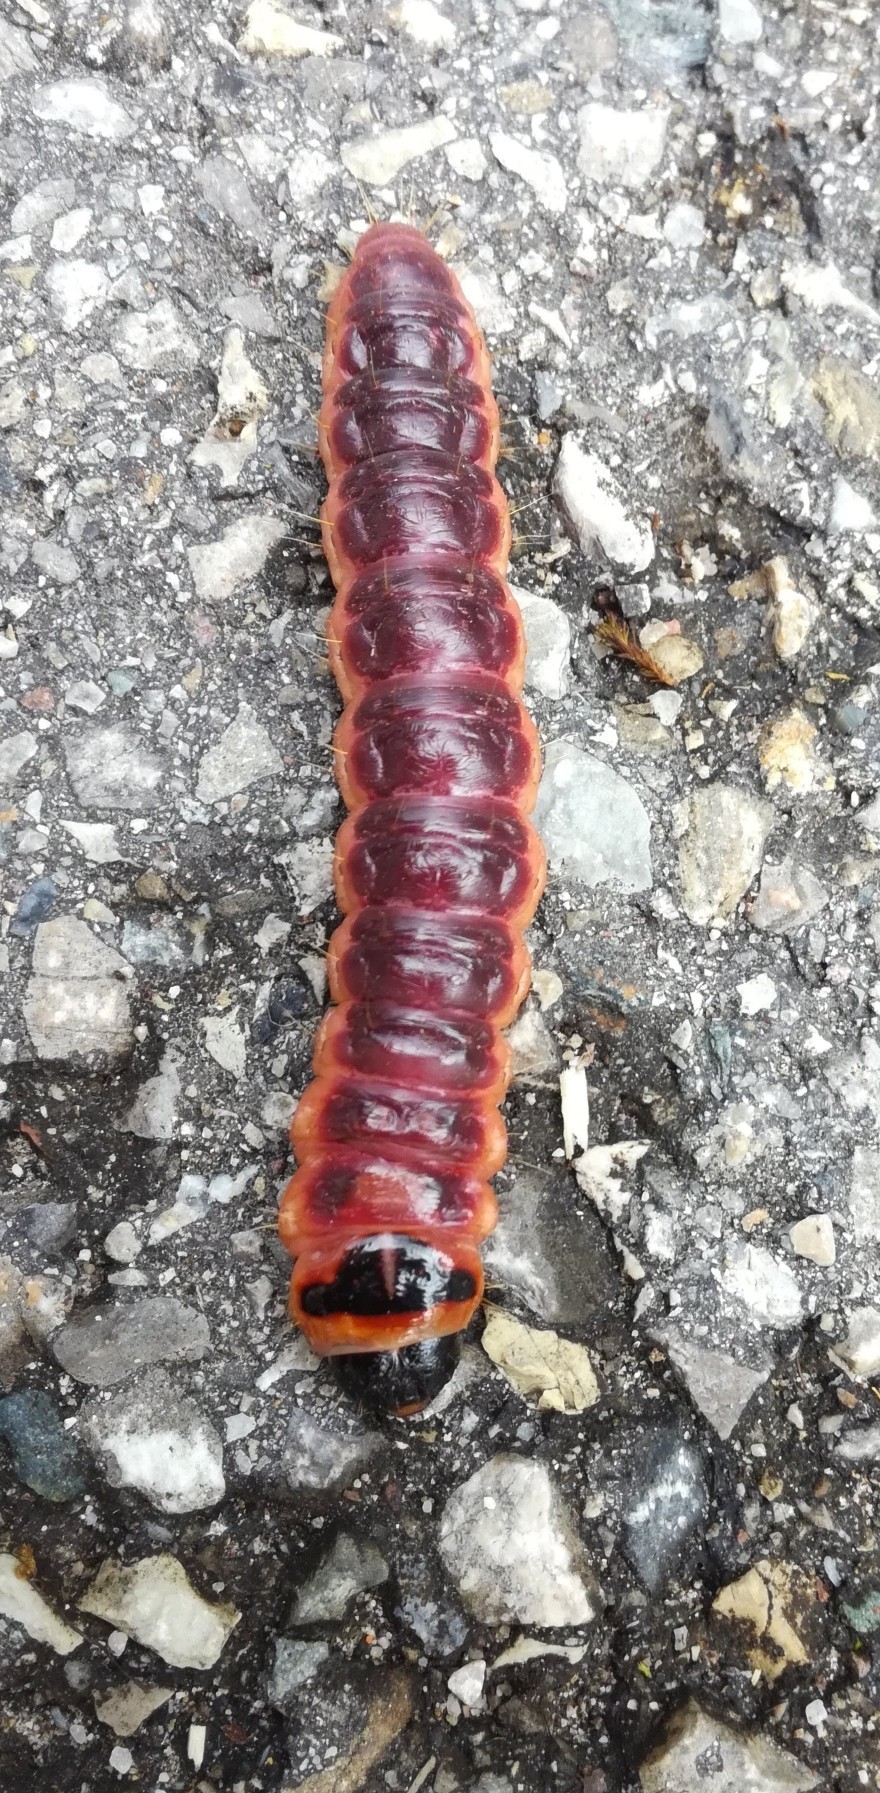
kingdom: Animalia
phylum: Arthropoda
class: Insecta
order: Lepidoptera
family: Cossidae
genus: Cossus
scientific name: Cossus cossus
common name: Goat moth
